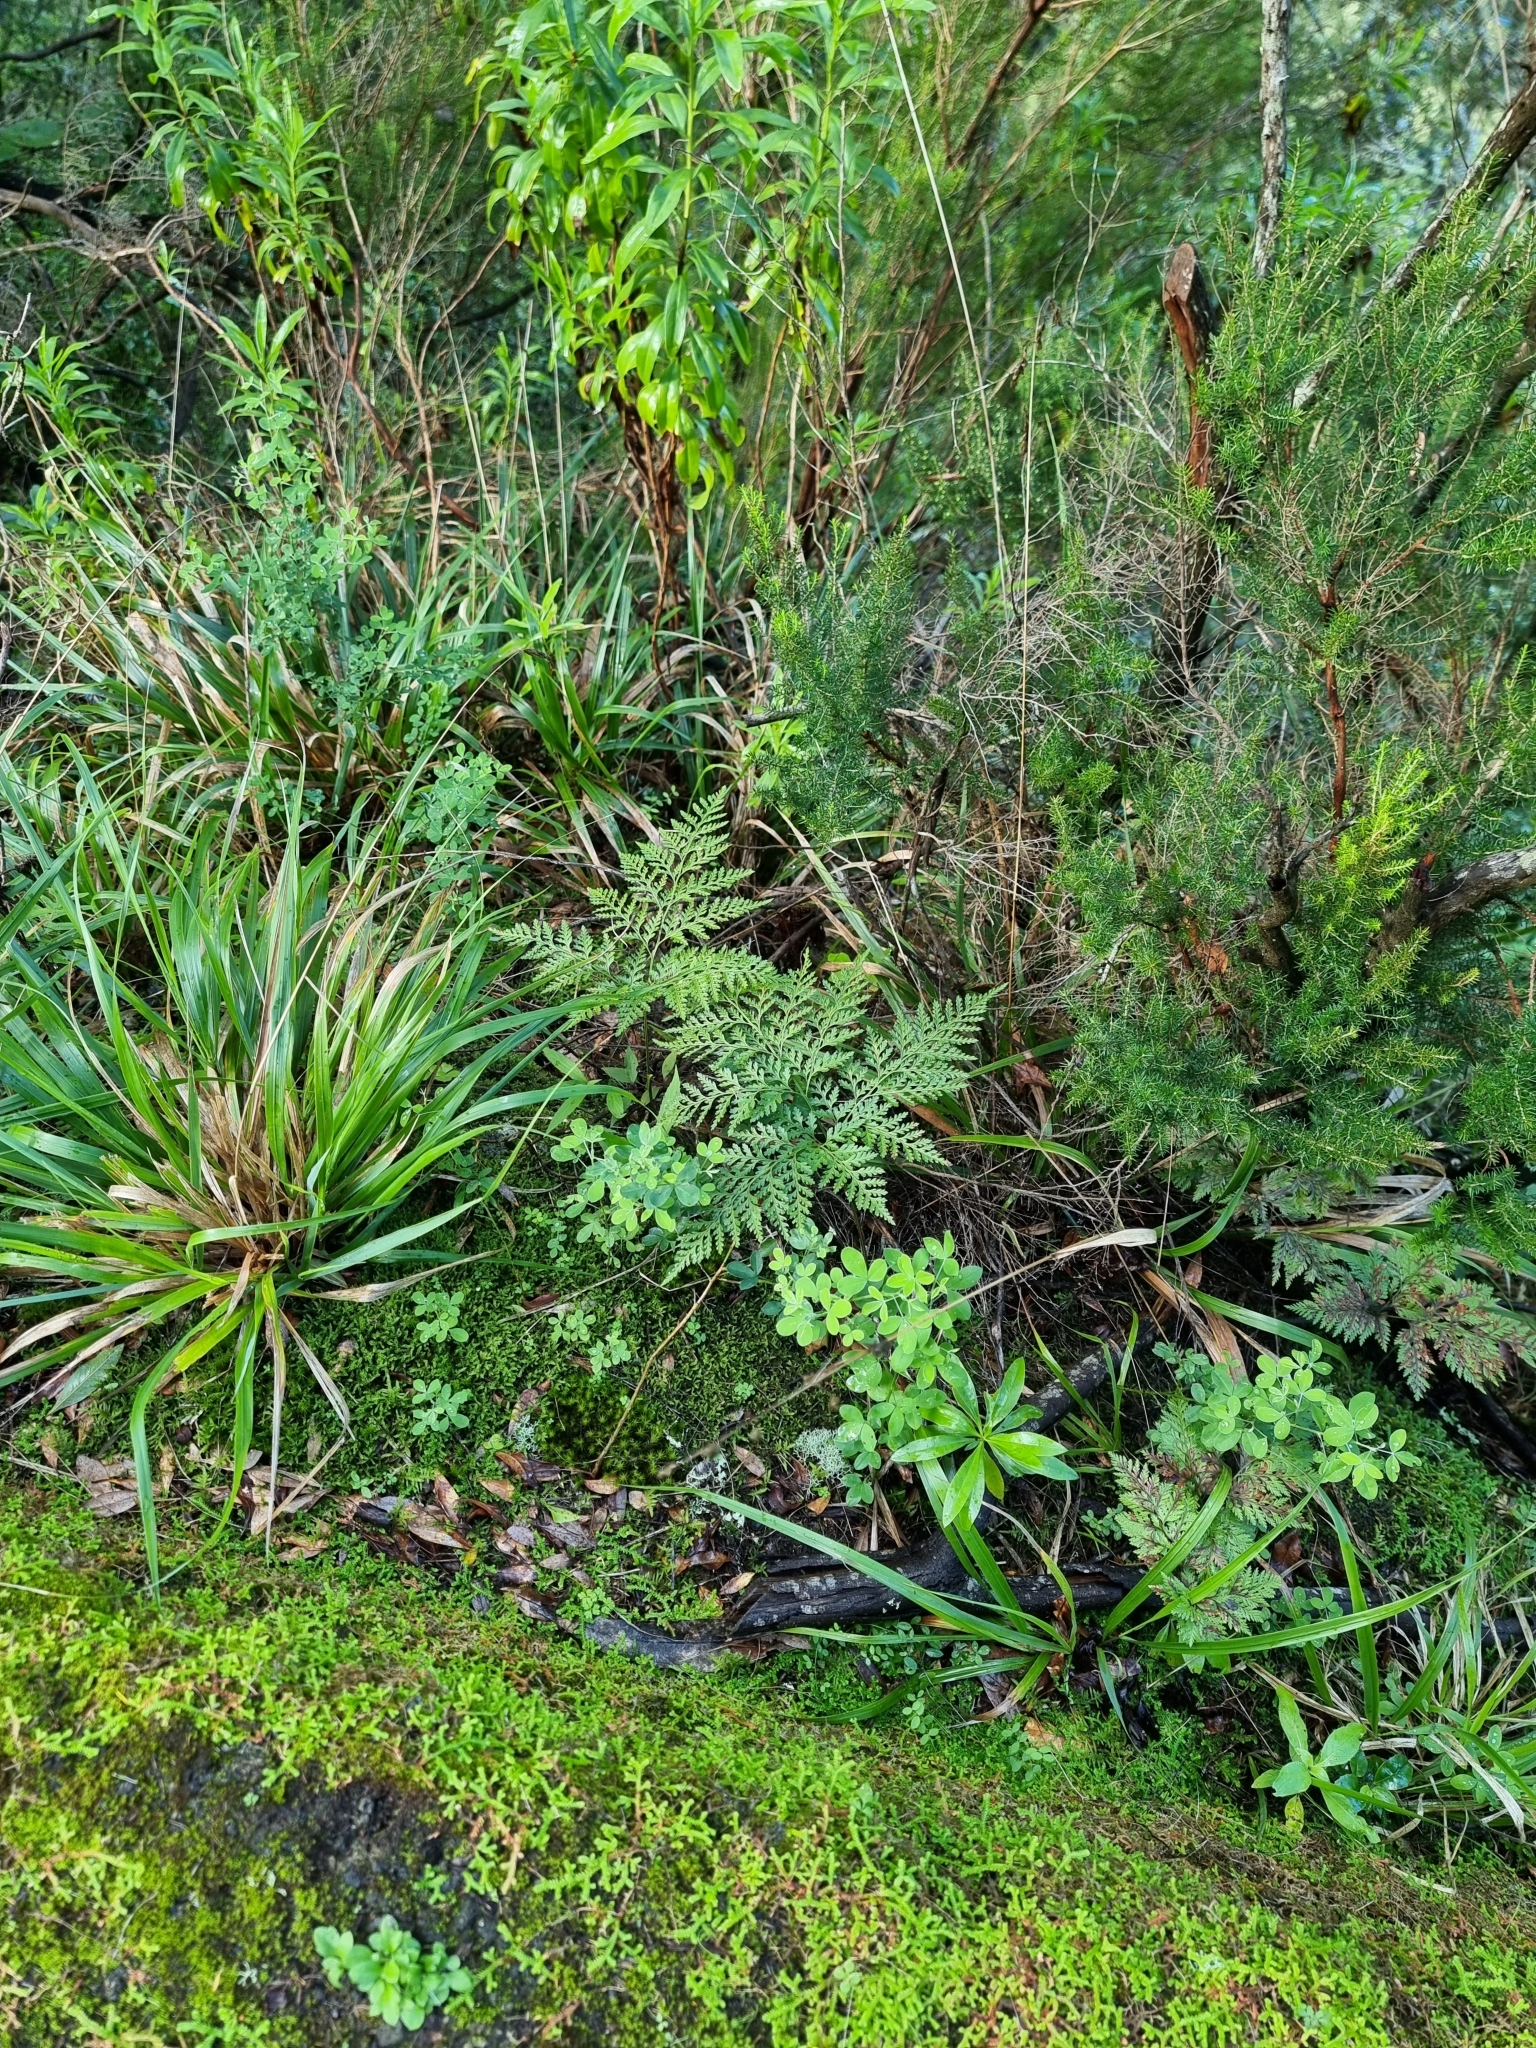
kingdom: Plantae
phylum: Tracheophyta
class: Polypodiopsida
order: Polypodiales
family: Davalliaceae
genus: Davallia
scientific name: Davallia canariensis
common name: Hare's-foot fern
